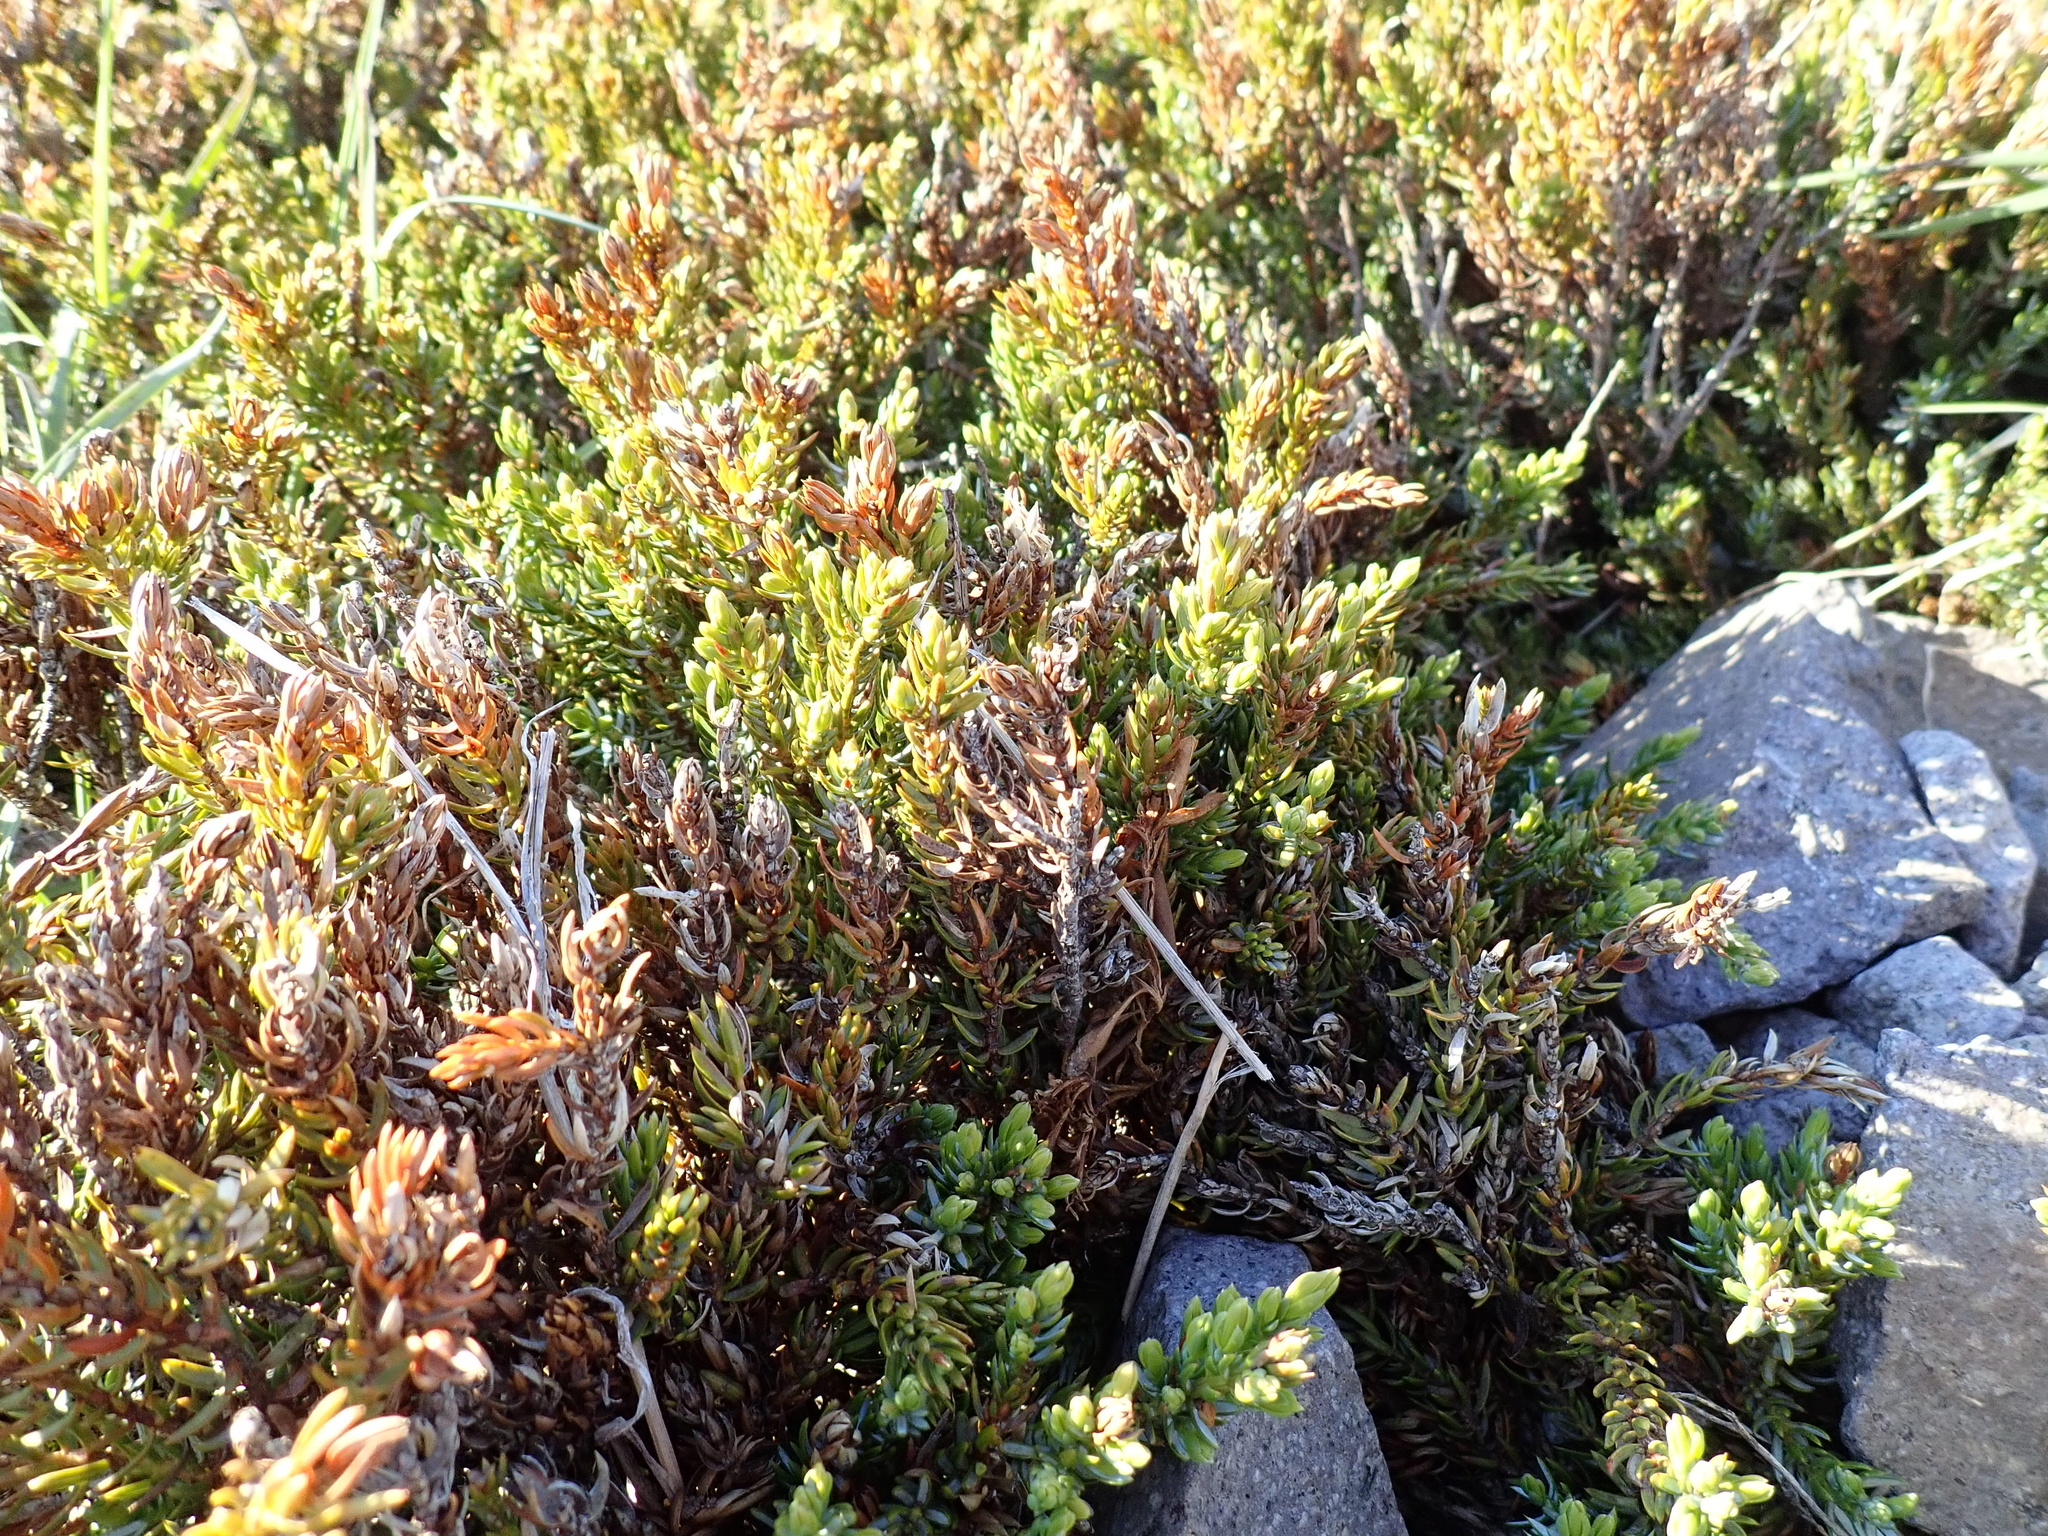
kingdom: Plantae
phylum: Tracheophyta
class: Pinopsida
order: Pinales
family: Cupressaceae
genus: Juniperus
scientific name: Juniperus communis
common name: Common juniper
